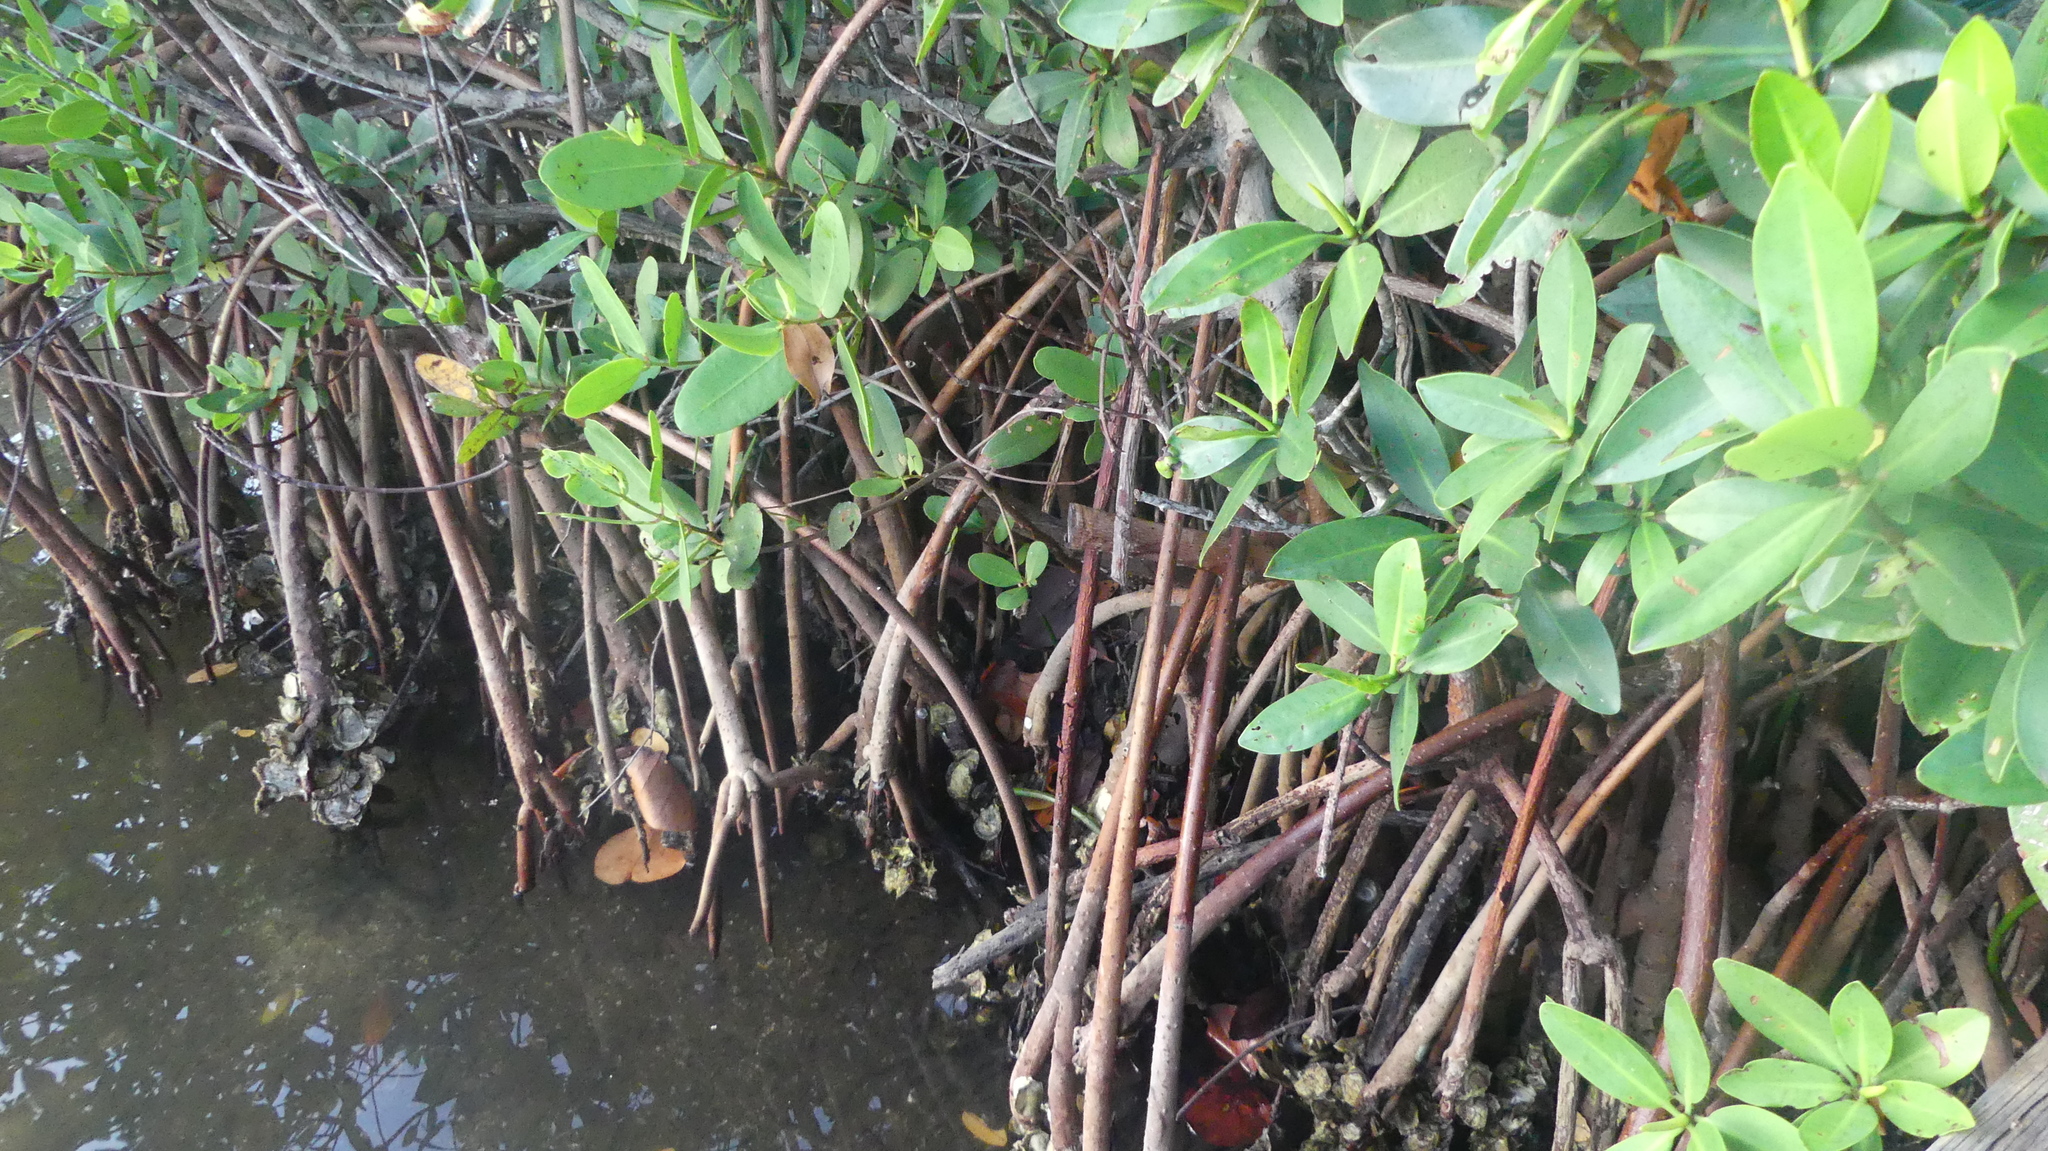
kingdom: Plantae
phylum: Tracheophyta
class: Magnoliopsida
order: Malpighiales
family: Rhizophoraceae
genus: Rhizophora
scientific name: Rhizophora mangle
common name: Red mangrove
